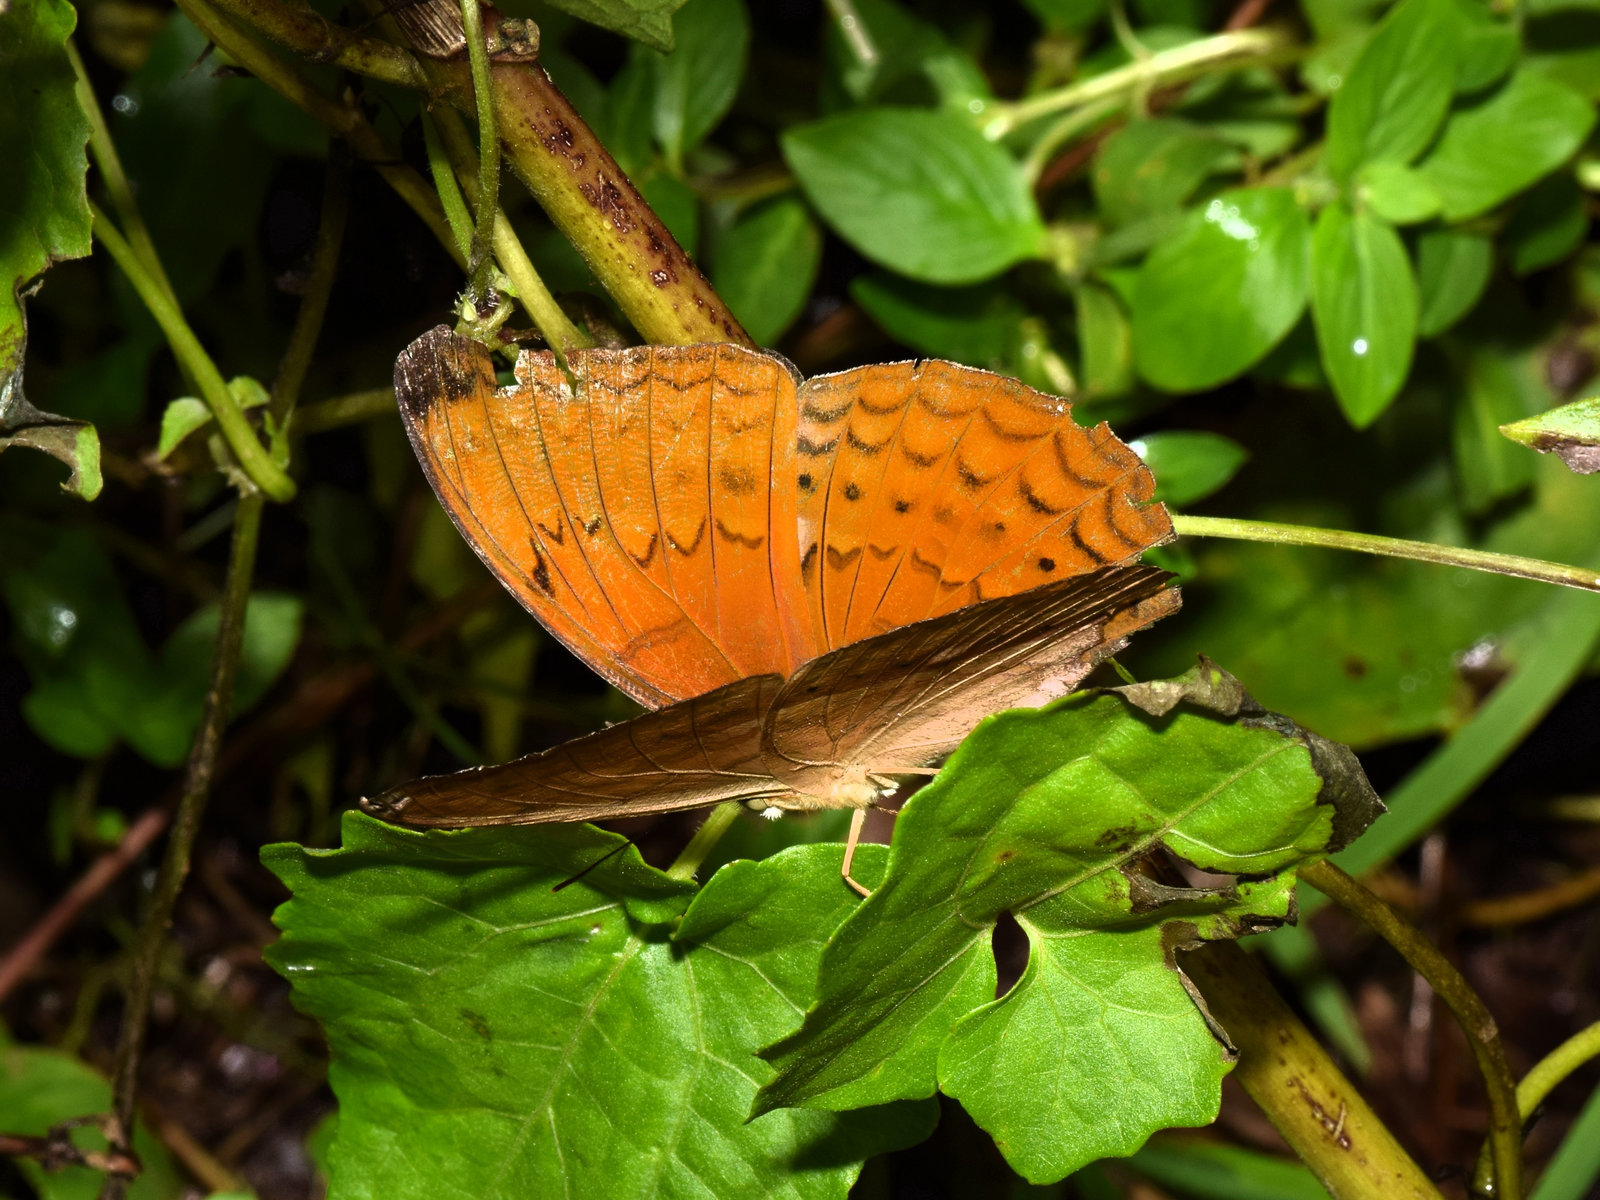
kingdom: Animalia
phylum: Arthropoda
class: Insecta
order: Lepidoptera
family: Nymphalidae
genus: Cirrochroa
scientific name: Cirrochroa aoris
